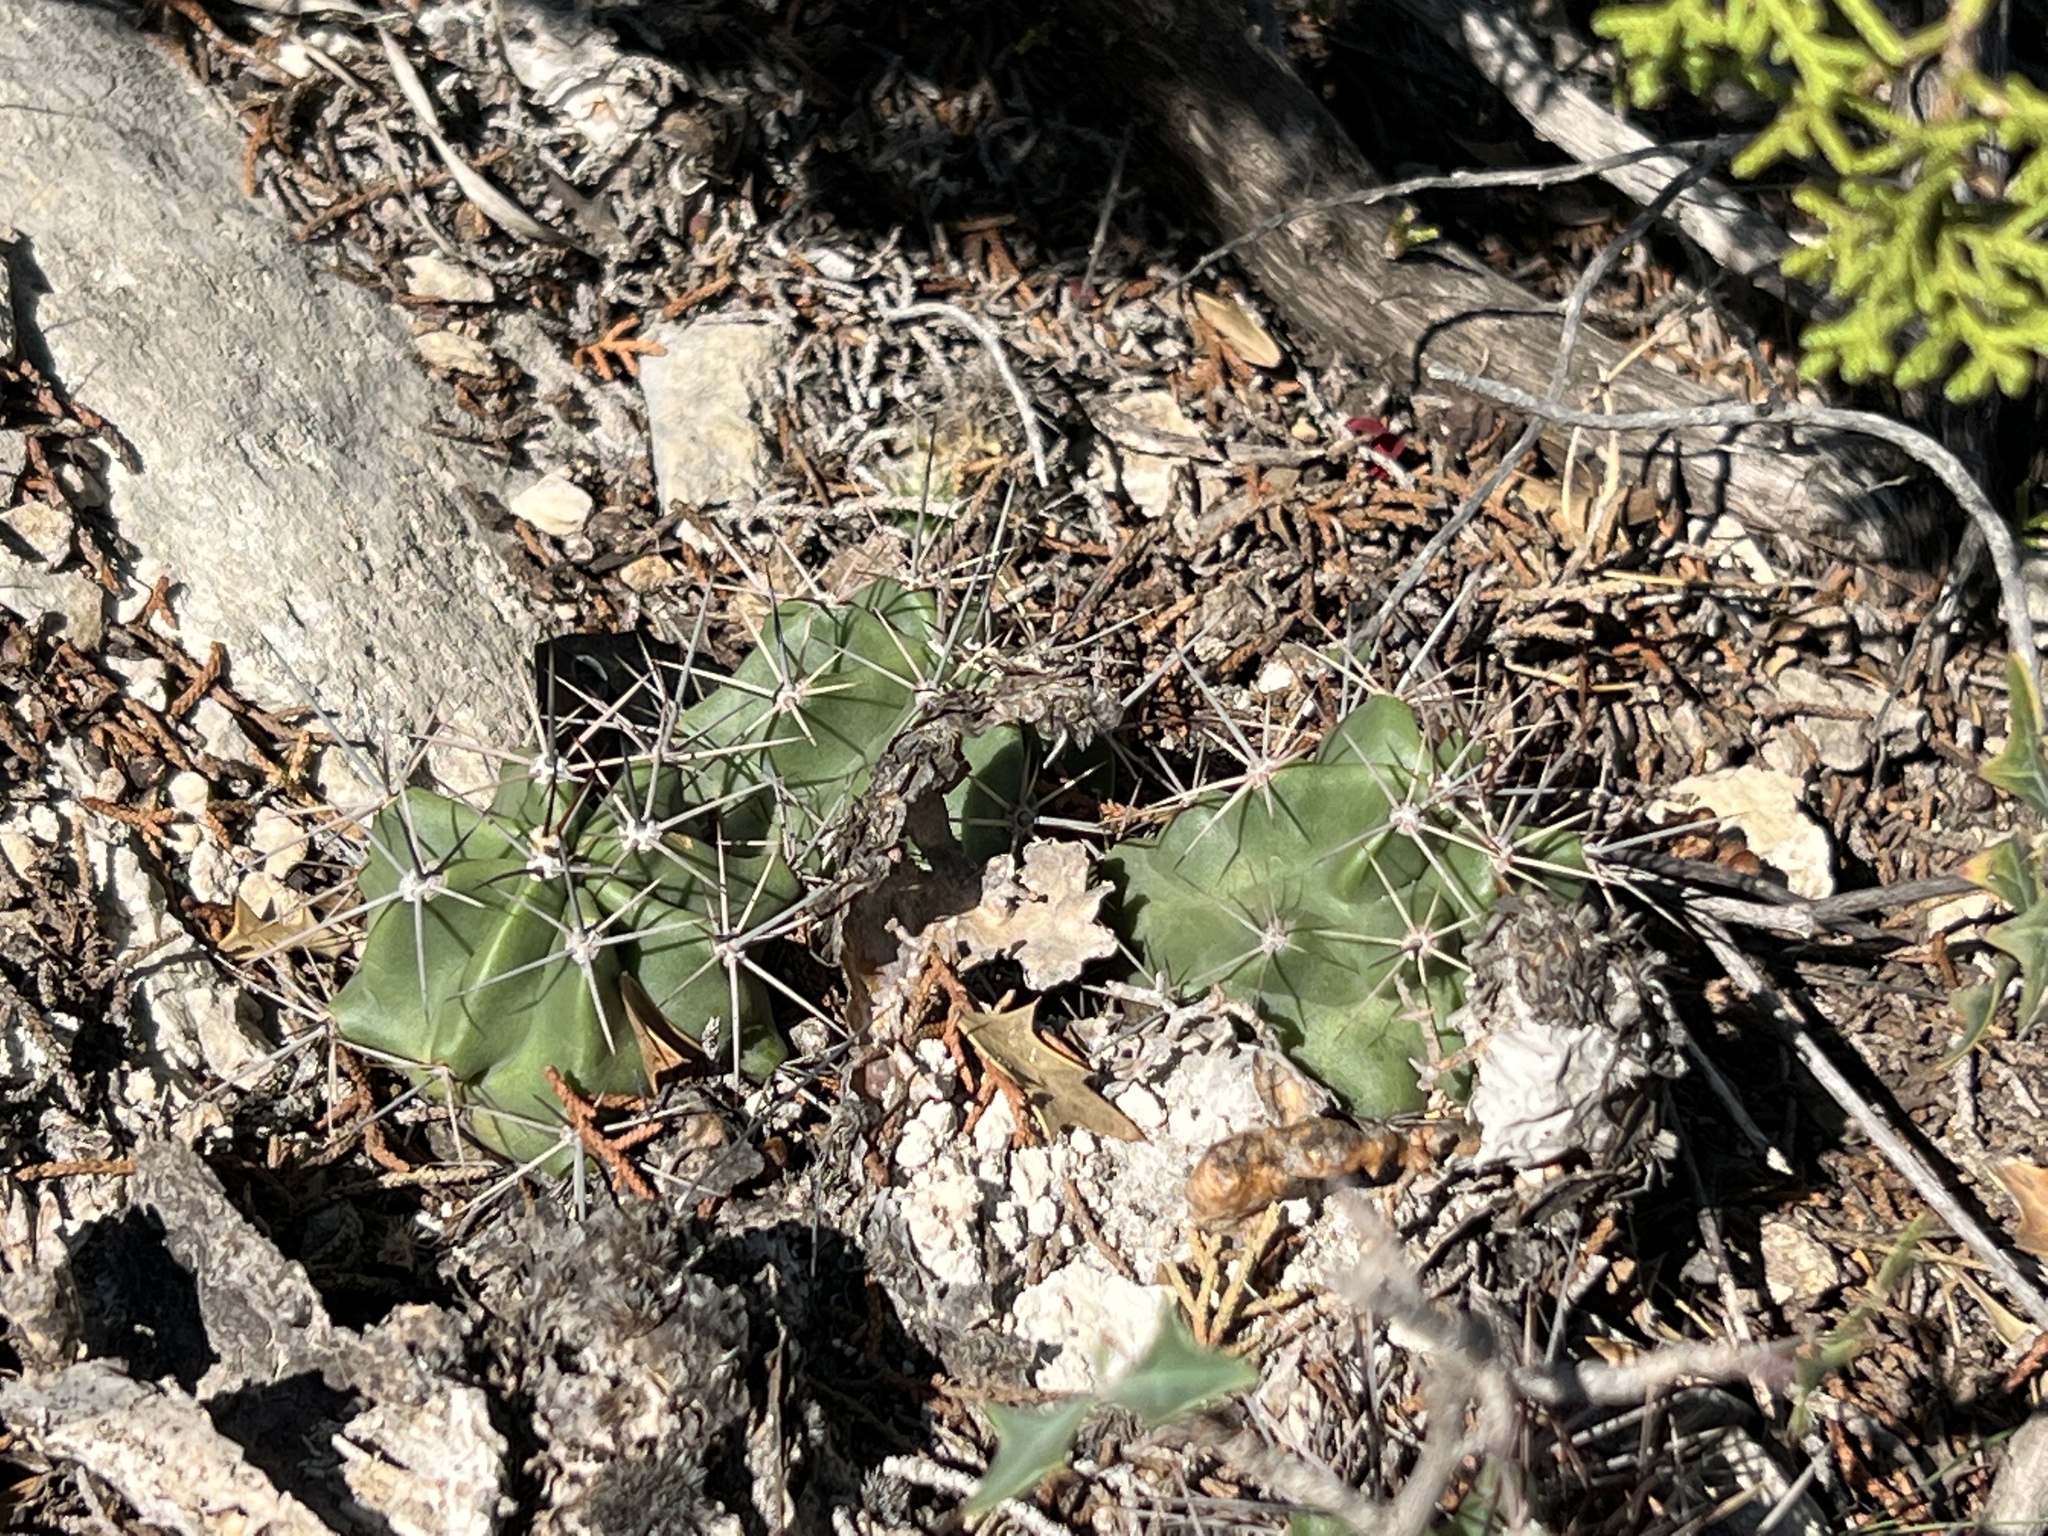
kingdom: Plantae
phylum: Tracheophyta
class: Magnoliopsida
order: Caryophyllales
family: Cactaceae
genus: Echinocereus
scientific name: Echinocereus coccineus
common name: Scarlet hedgehog cactus
